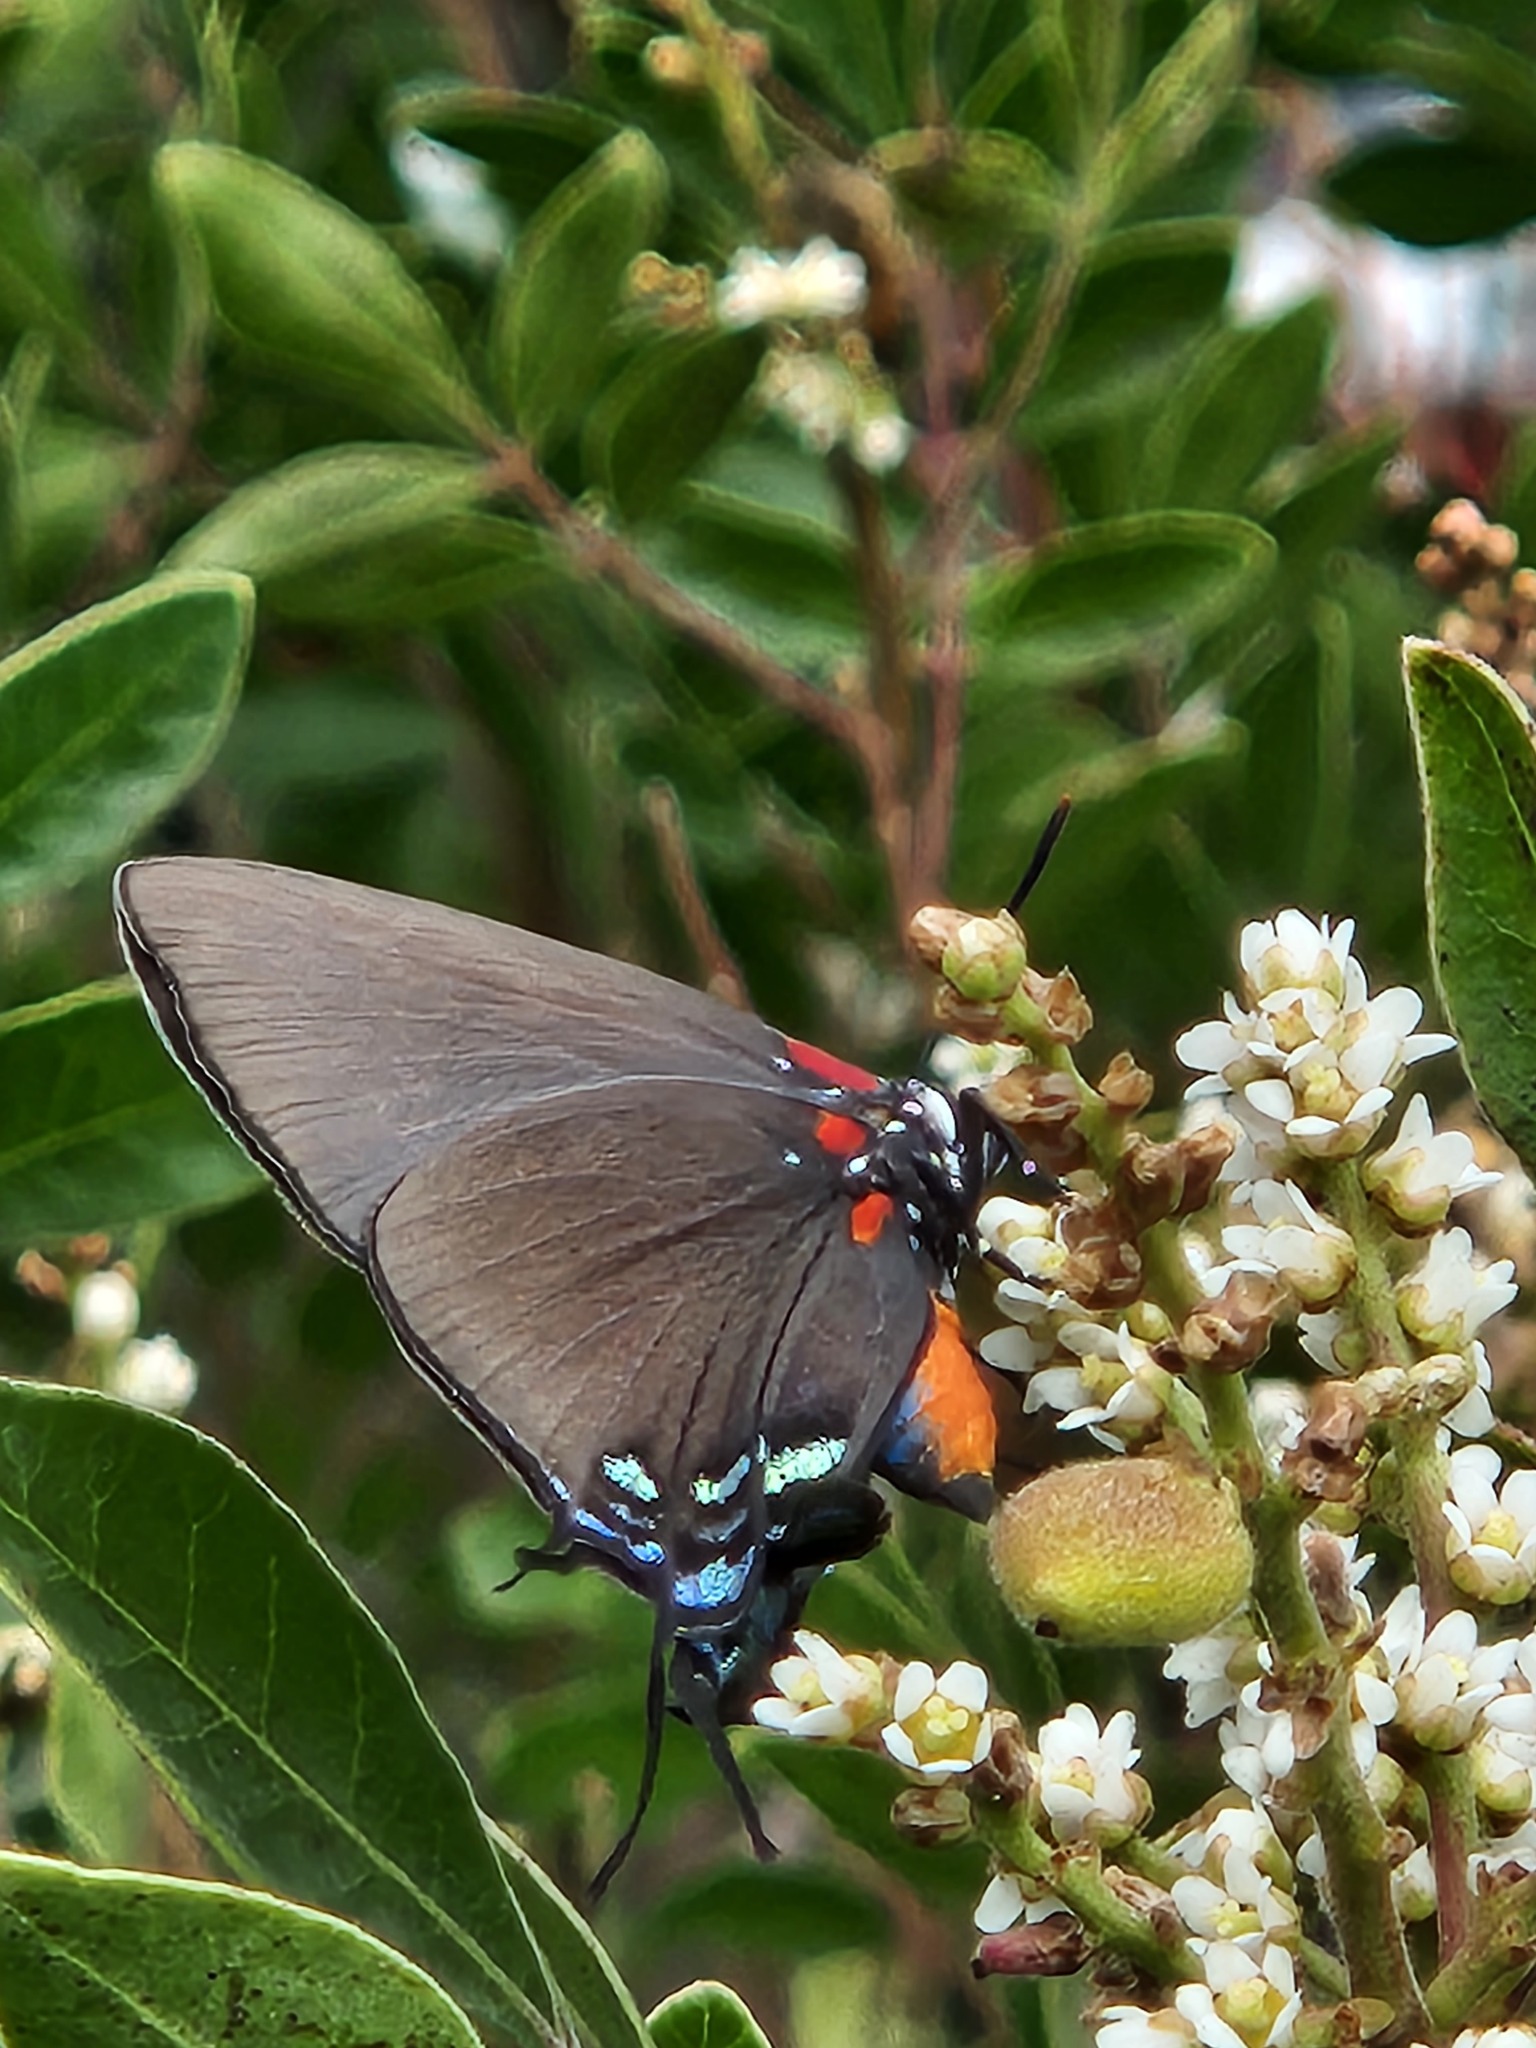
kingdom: Animalia
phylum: Arthropoda
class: Insecta
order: Lepidoptera
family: Lycaenidae
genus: Atlides
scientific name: Atlides halesus
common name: Great purple hairstreak
